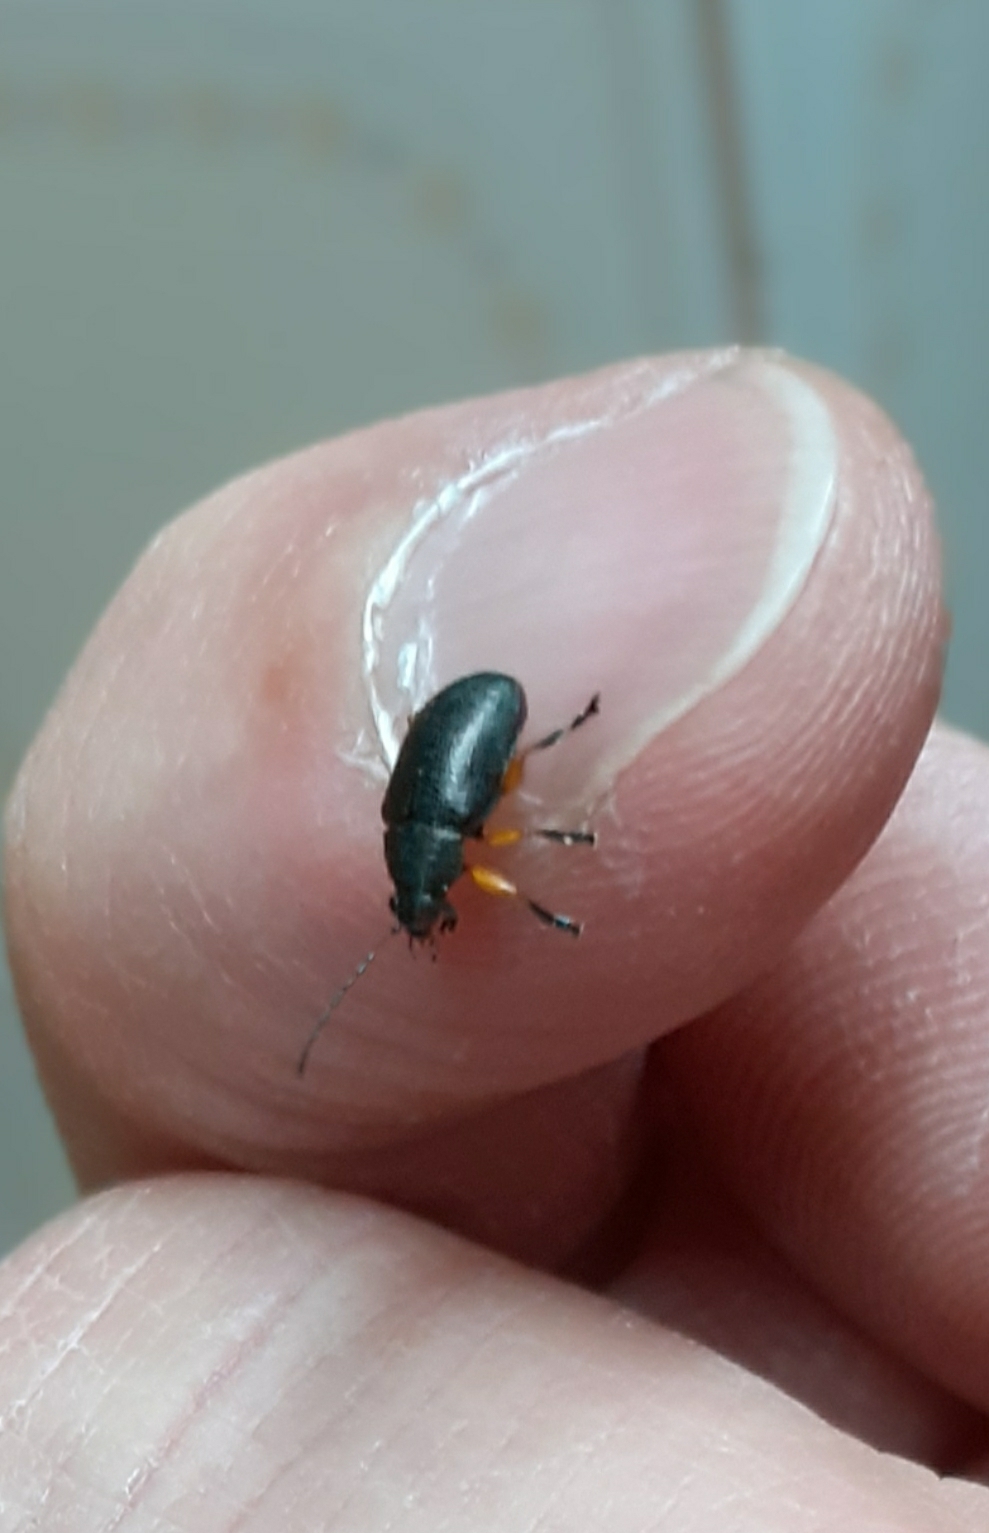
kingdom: Animalia
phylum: Arthropoda
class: Insecta
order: Coleoptera
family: Chrysomelidae
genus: Nodocolaspis
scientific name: Nodocolaspis
